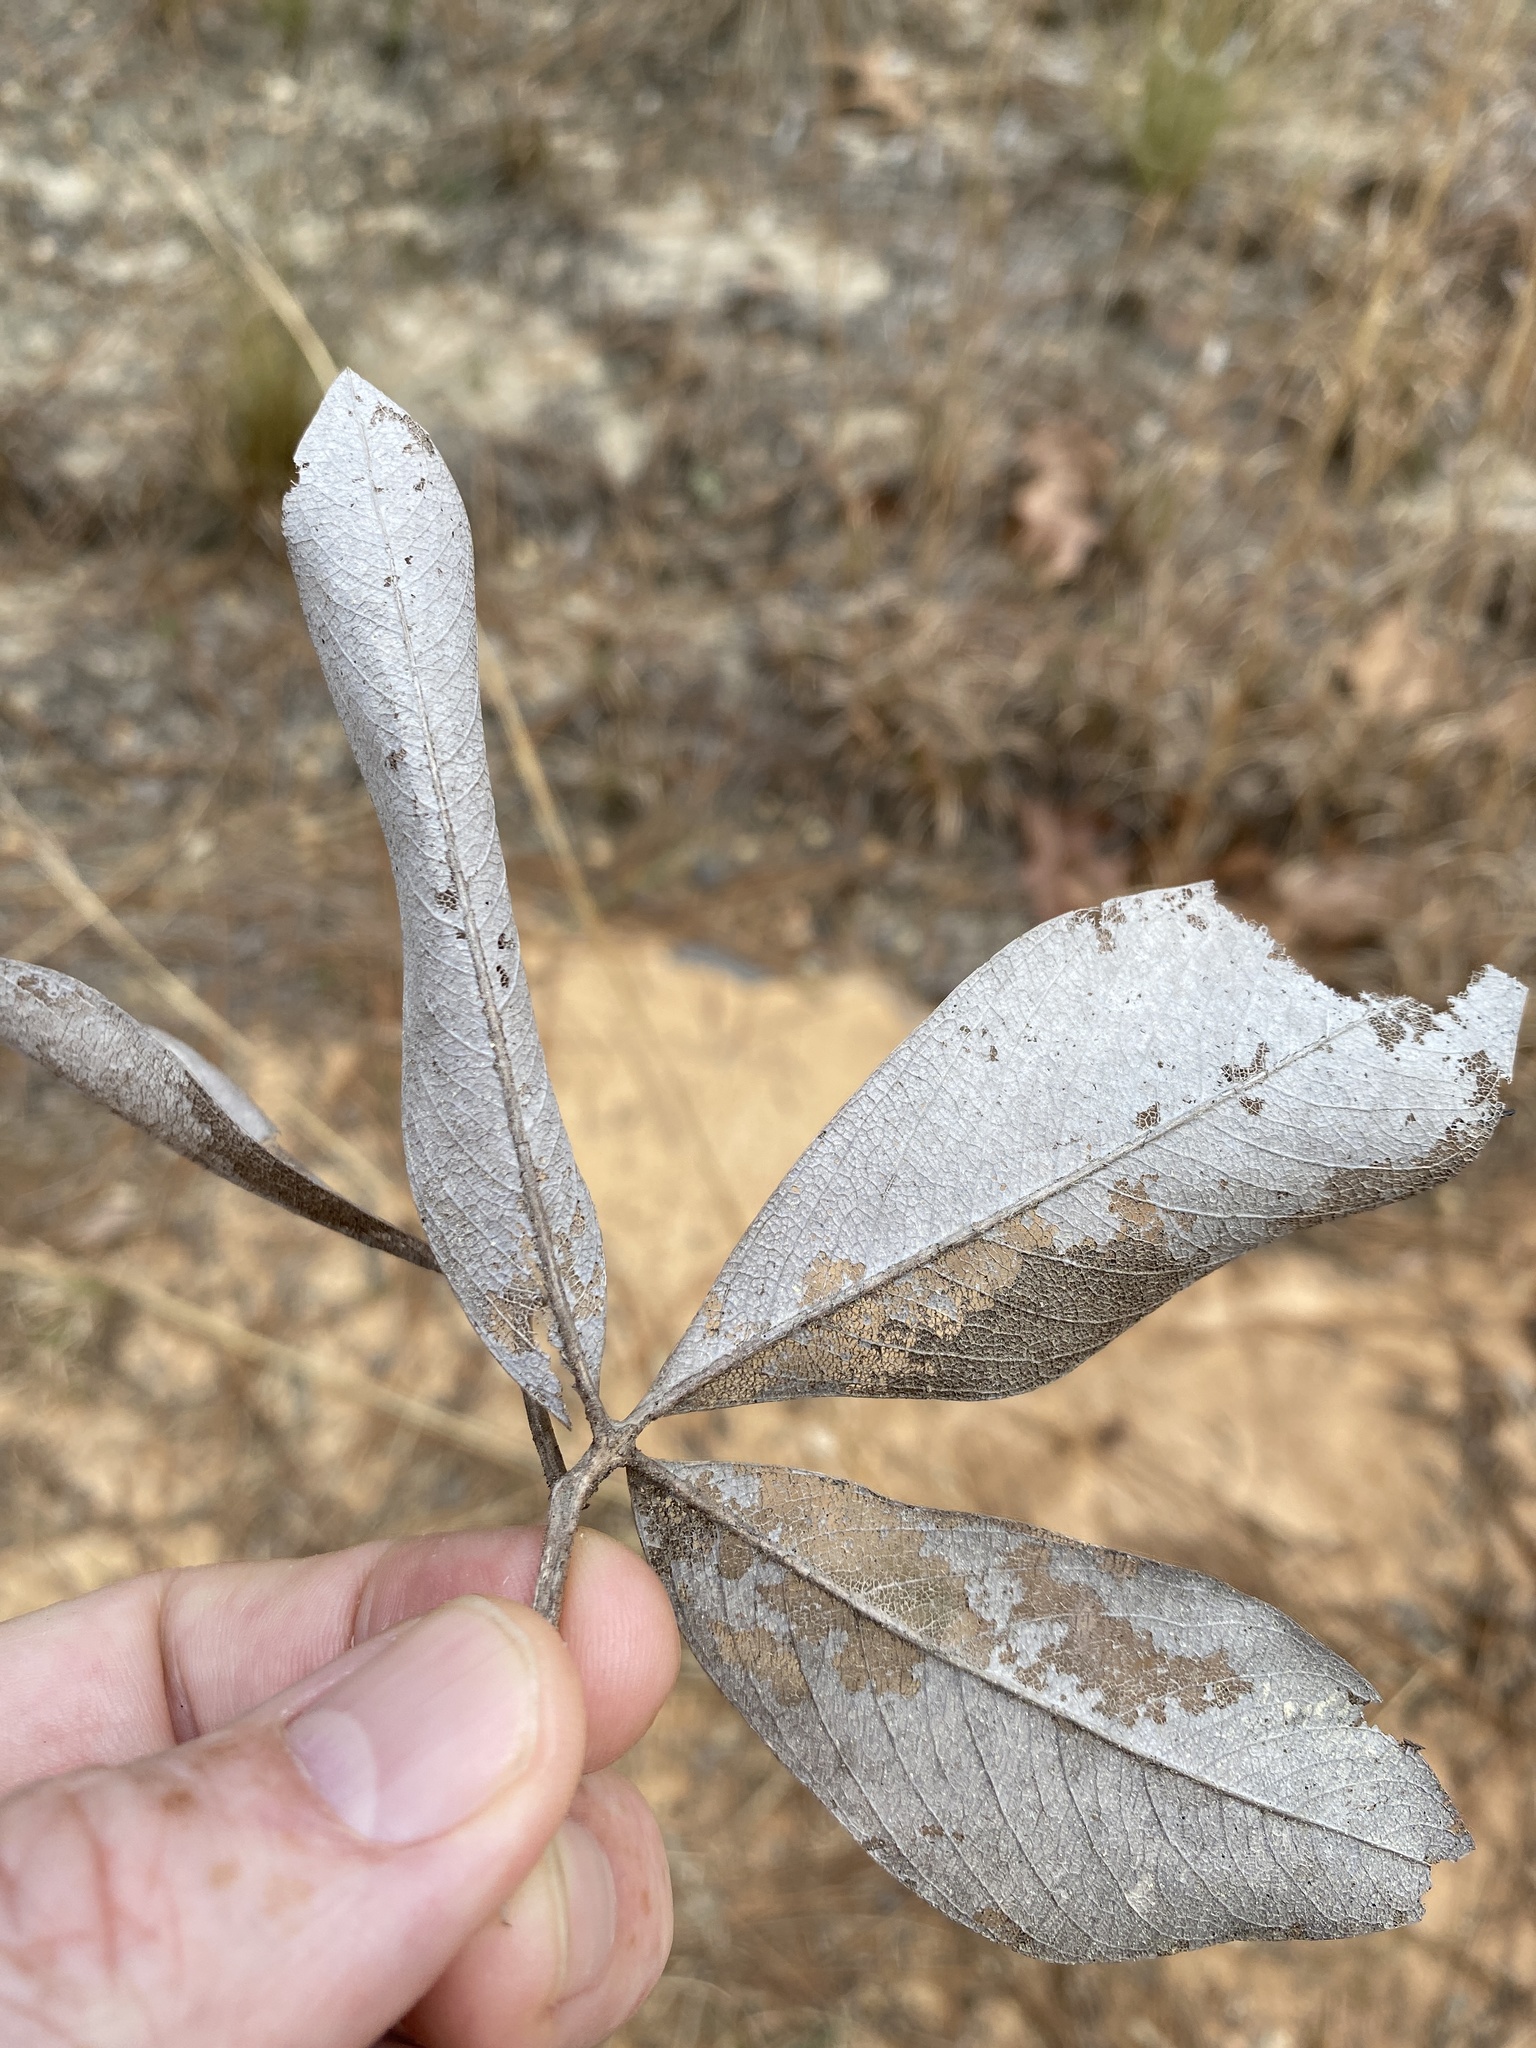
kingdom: Plantae
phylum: Tracheophyta
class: Magnoliopsida
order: Fabales
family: Fabaceae
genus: Baptisia
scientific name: Baptisia cinerea
